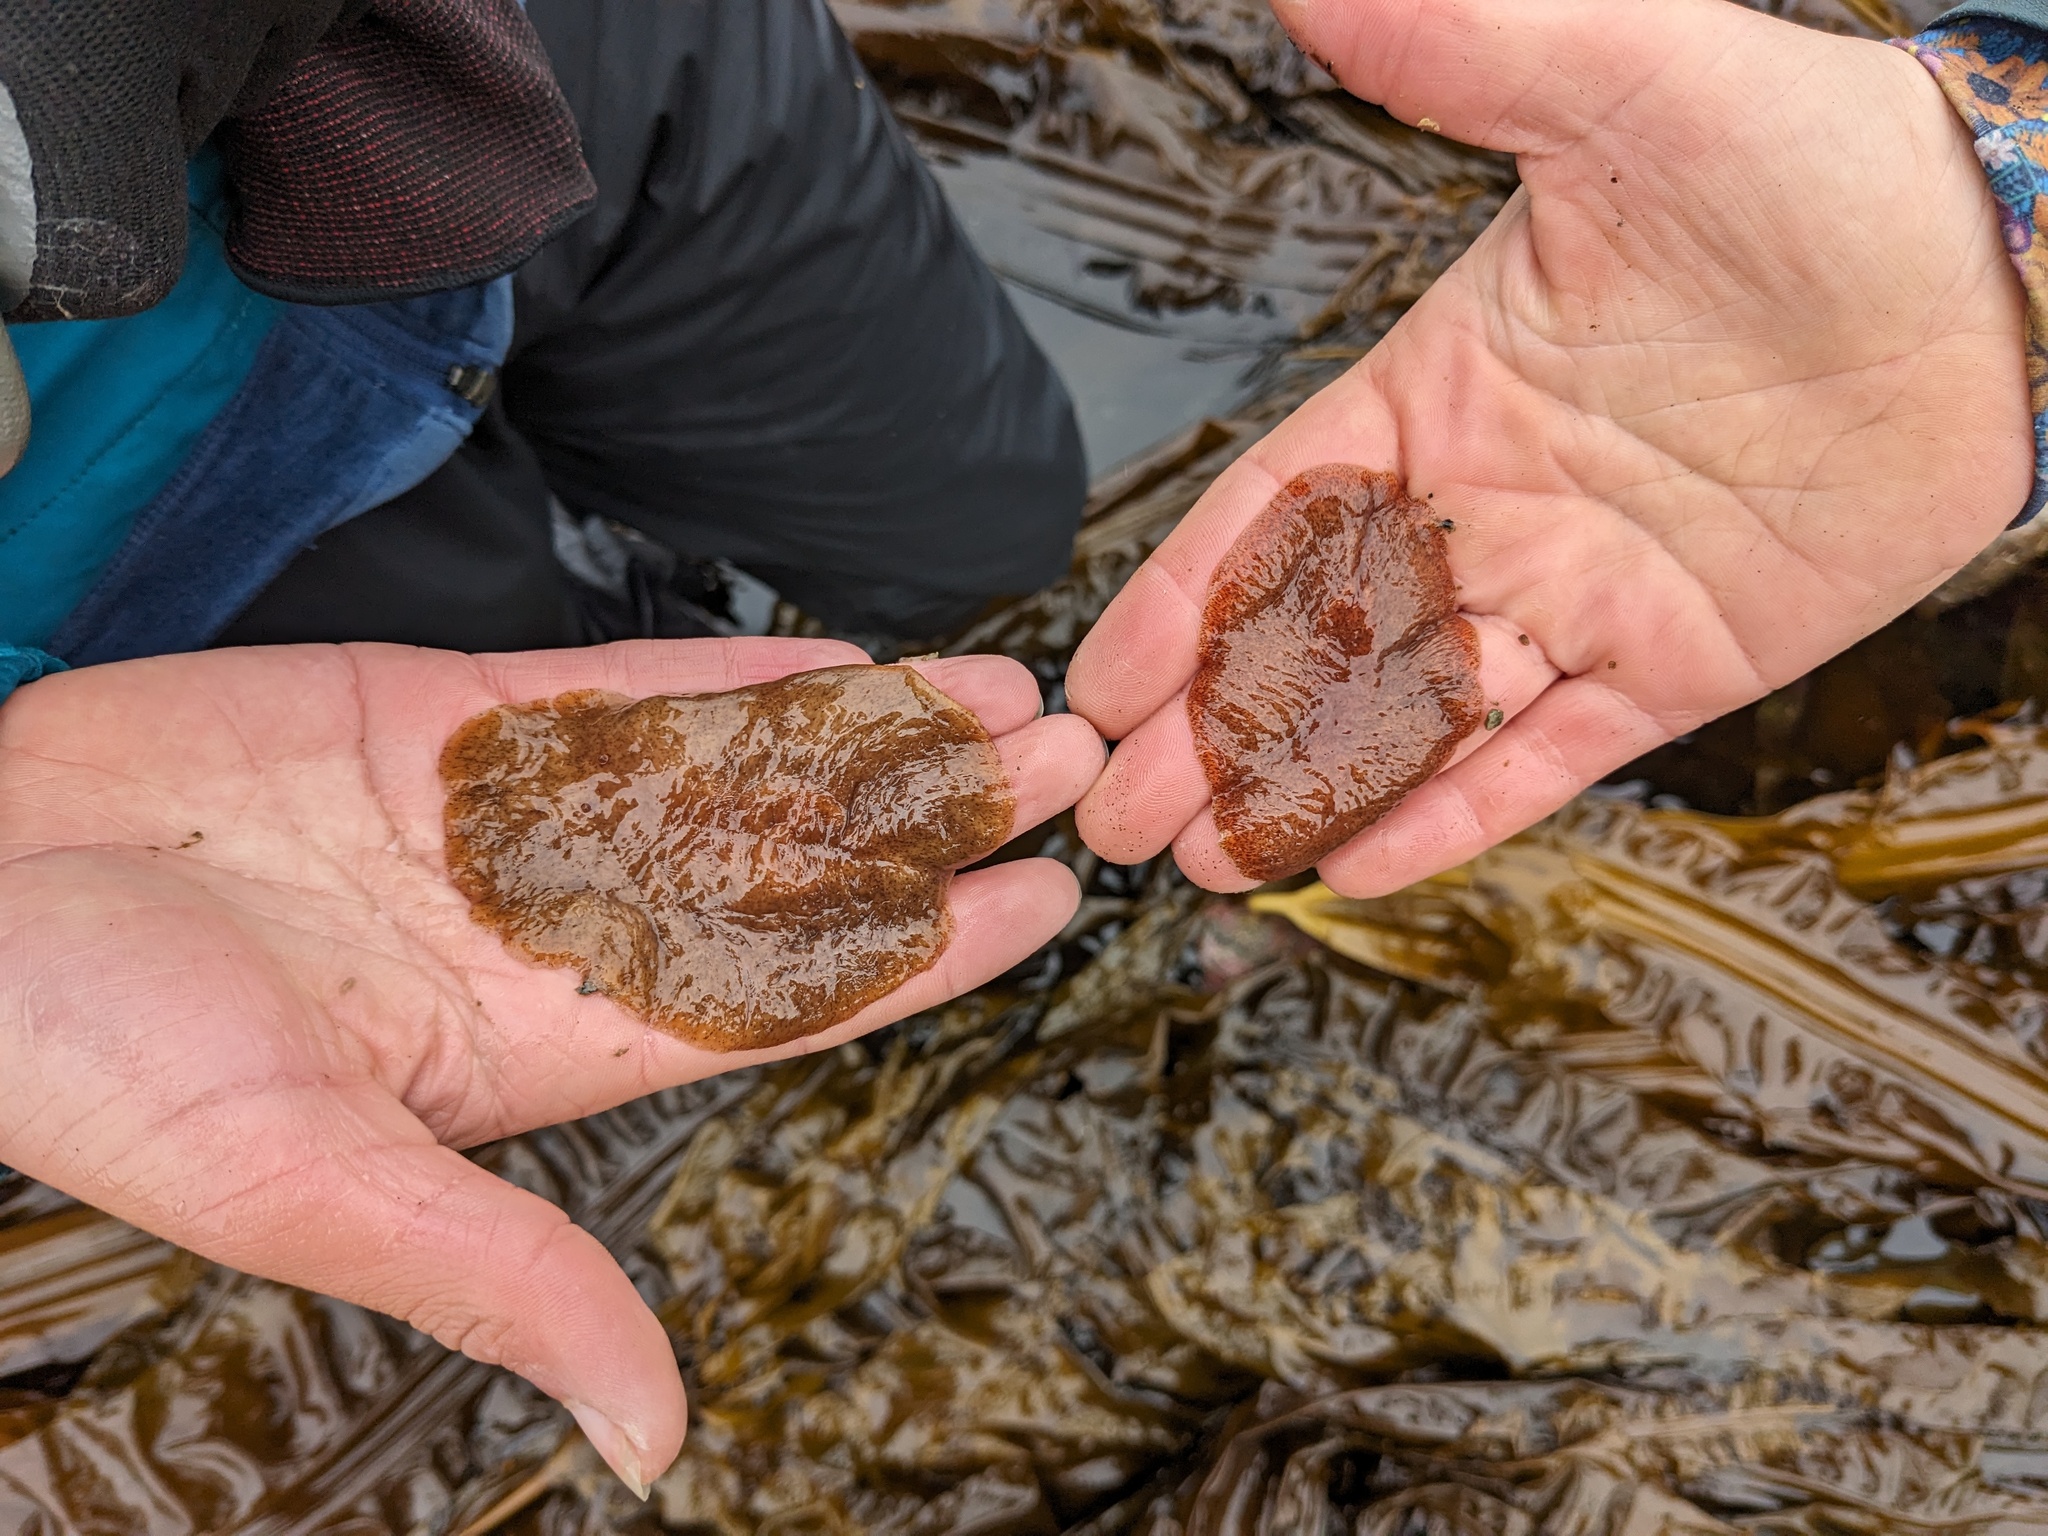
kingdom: Animalia
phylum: Platyhelminthes
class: Turbellaria
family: Callioplanidae
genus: Kaburakia
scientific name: Kaburakia excelsa
